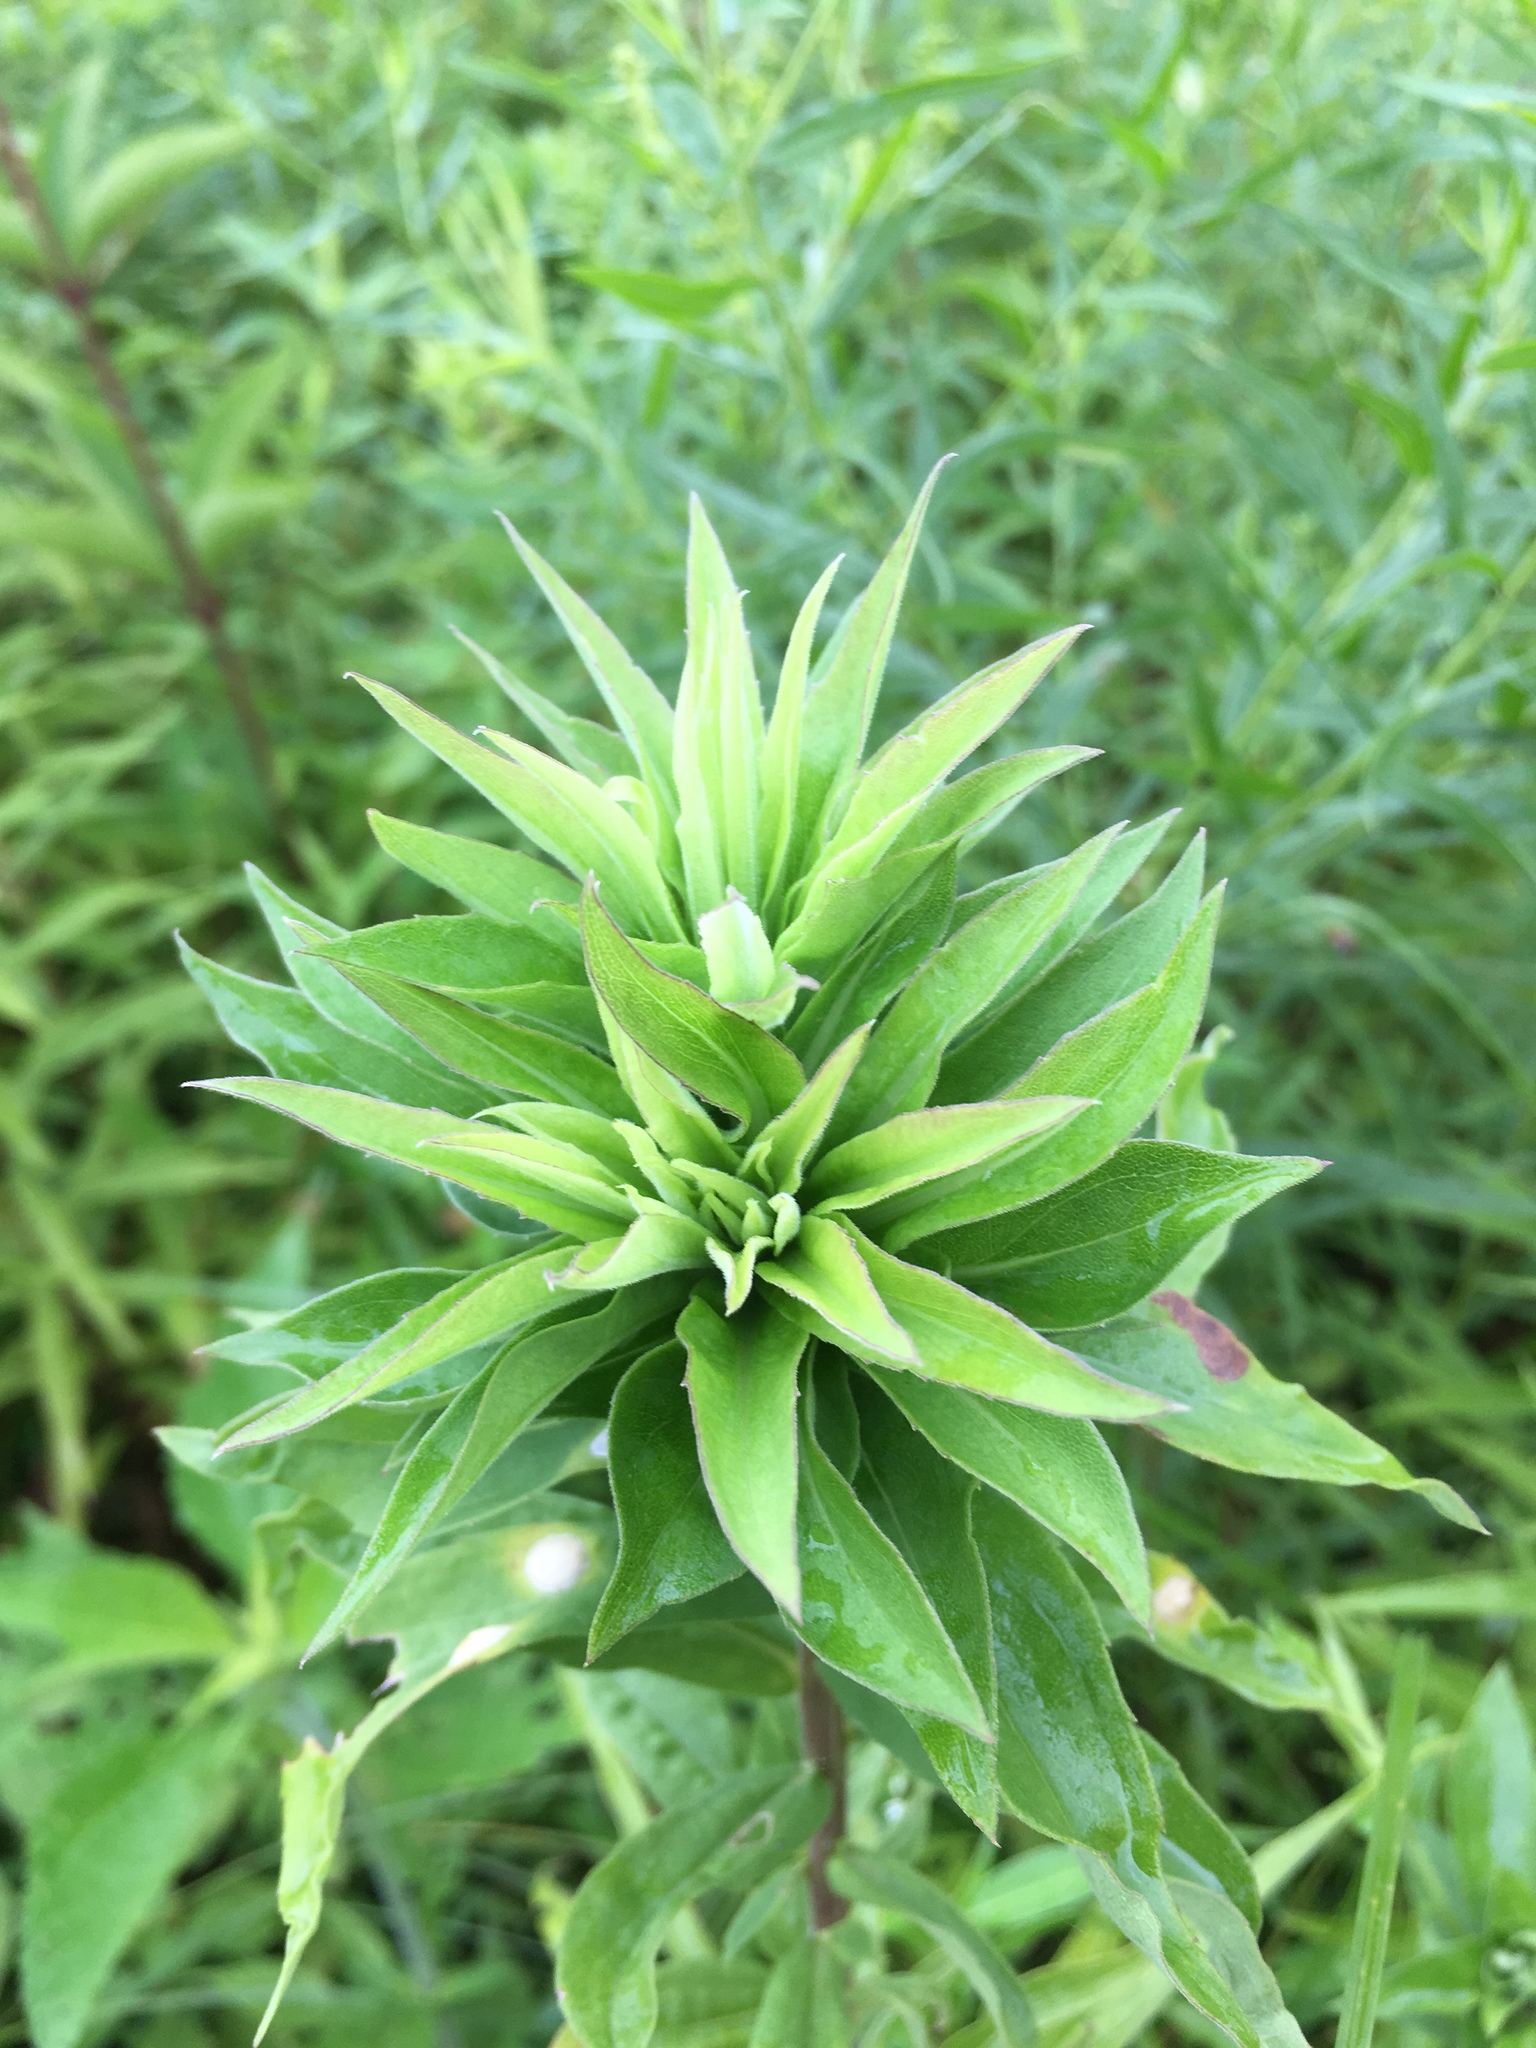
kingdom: Animalia
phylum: Arthropoda
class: Insecta
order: Diptera
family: Cecidomyiidae
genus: Rhopalomyia
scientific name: Rhopalomyia solidaginis
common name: Goldenrod bunch gall midge
